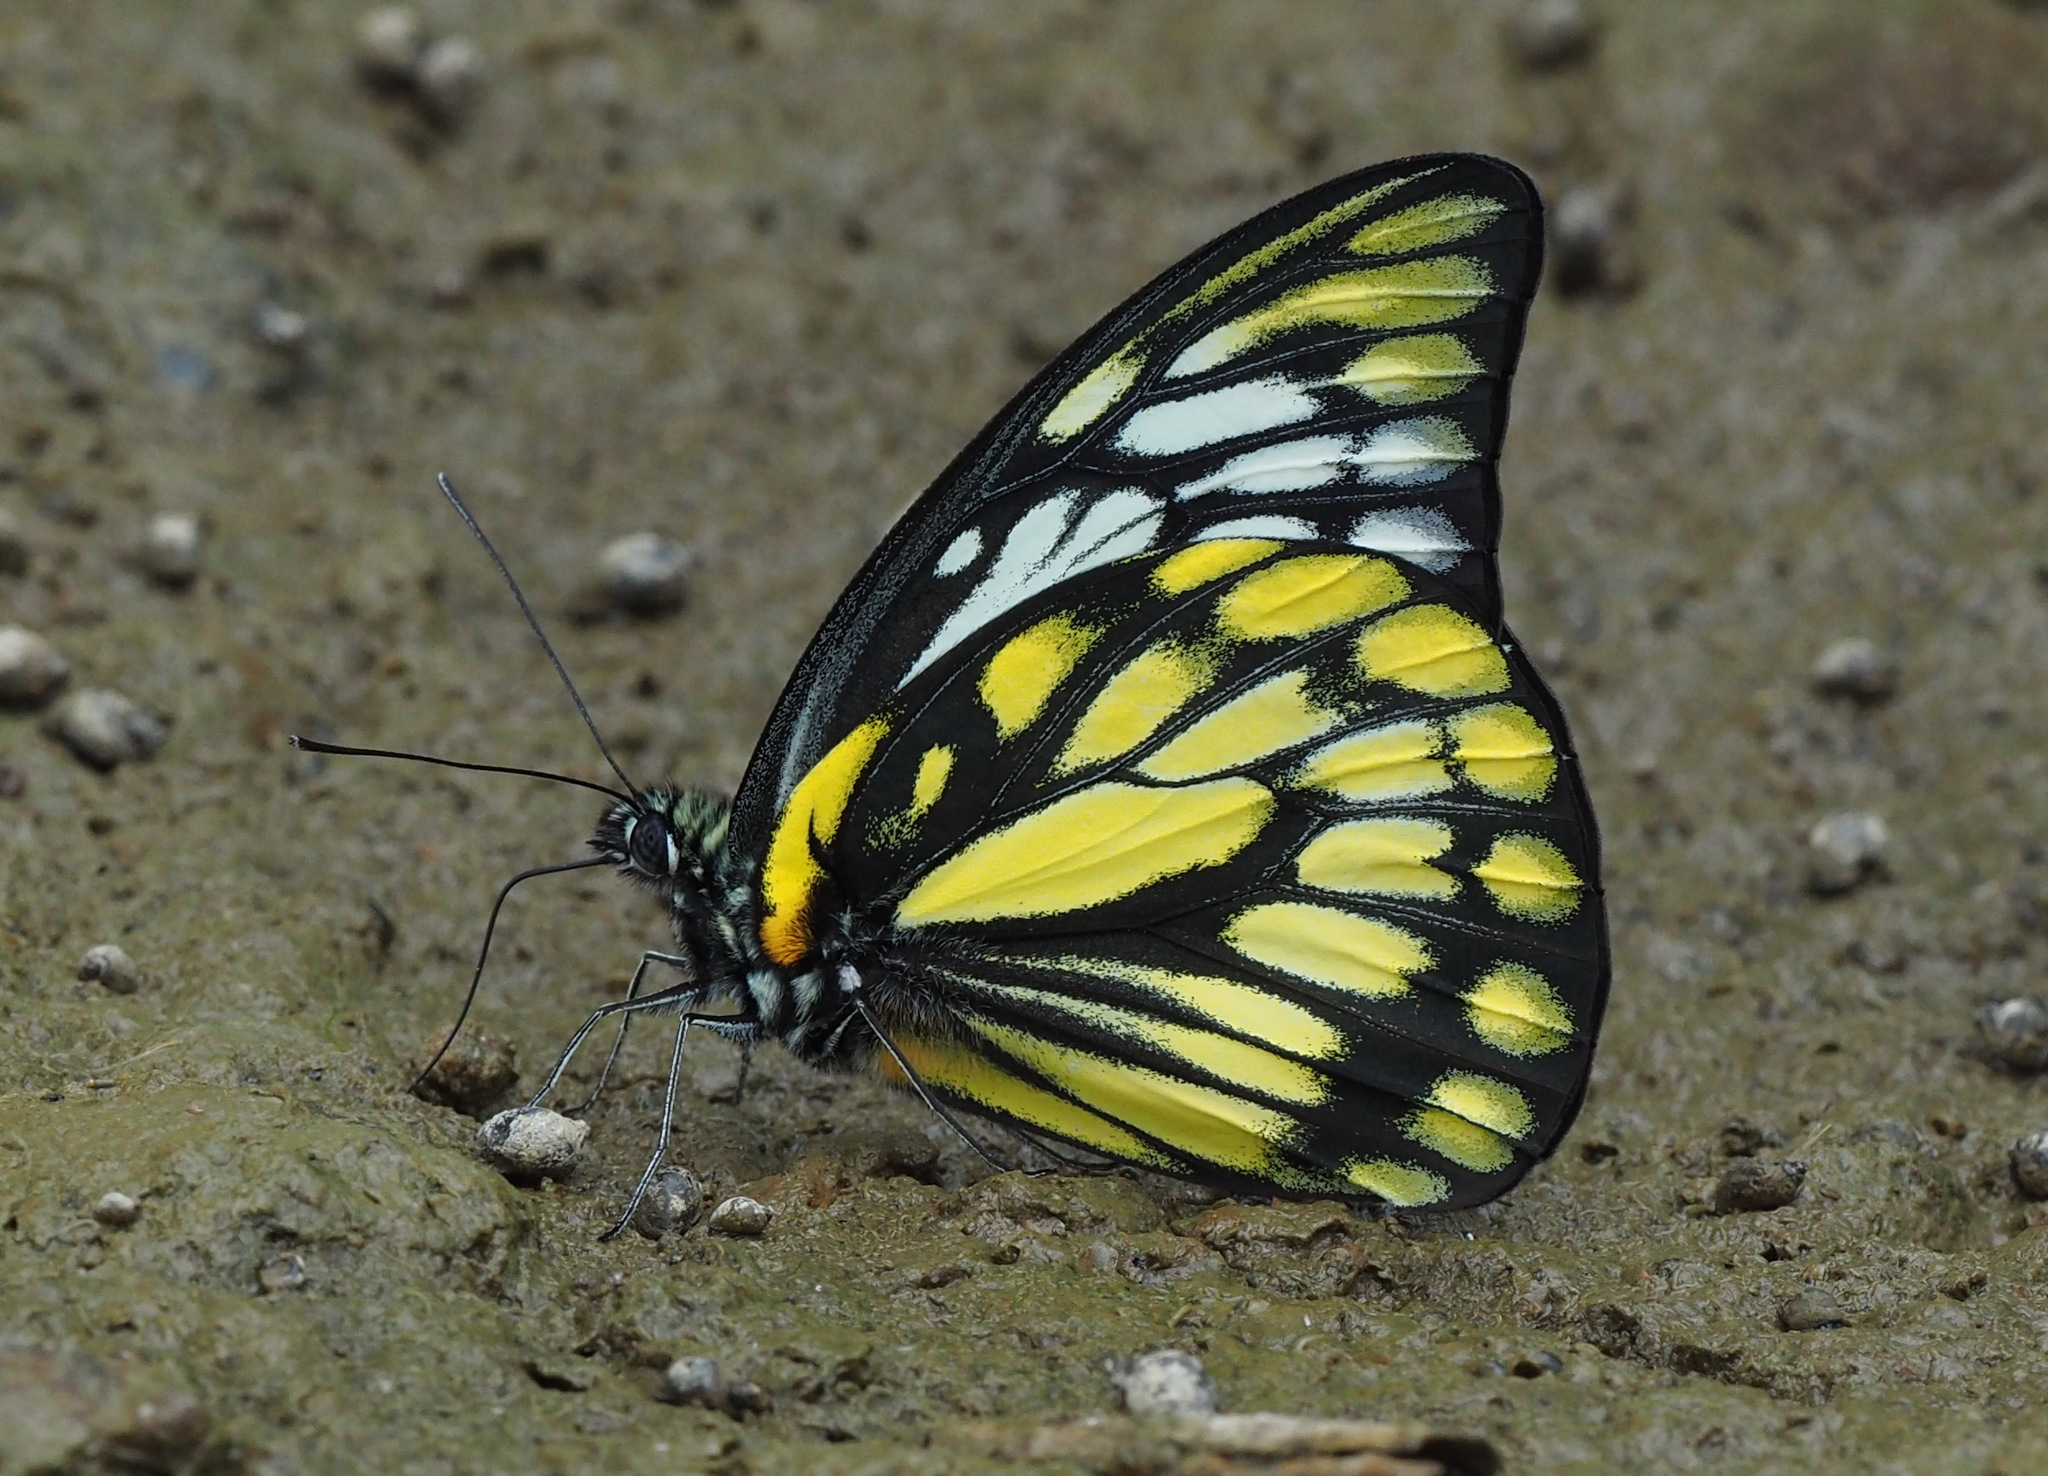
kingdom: Animalia
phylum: Arthropoda
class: Insecta
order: Lepidoptera
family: Pieridae
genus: Prioneris
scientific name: Prioneris thestylis
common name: Spotted sawtooth
